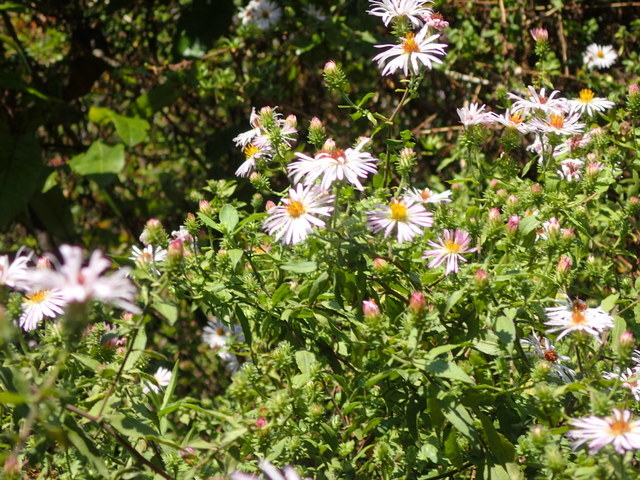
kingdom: Plantae
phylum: Tracheophyta
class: Magnoliopsida
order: Asterales
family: Asteraceae
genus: Ampelaster
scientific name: Ampelaster carolinianus
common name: Climbing aster
